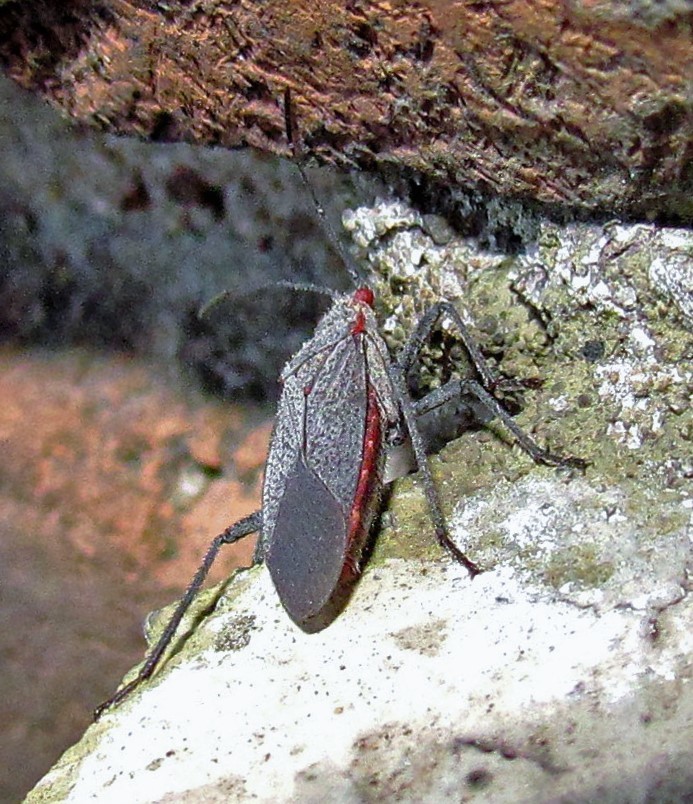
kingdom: Animalia
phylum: Arthropoda
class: Insecta
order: Hemiptera
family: Rhopalidae
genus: Jadera
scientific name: Jadera parapectoralis
